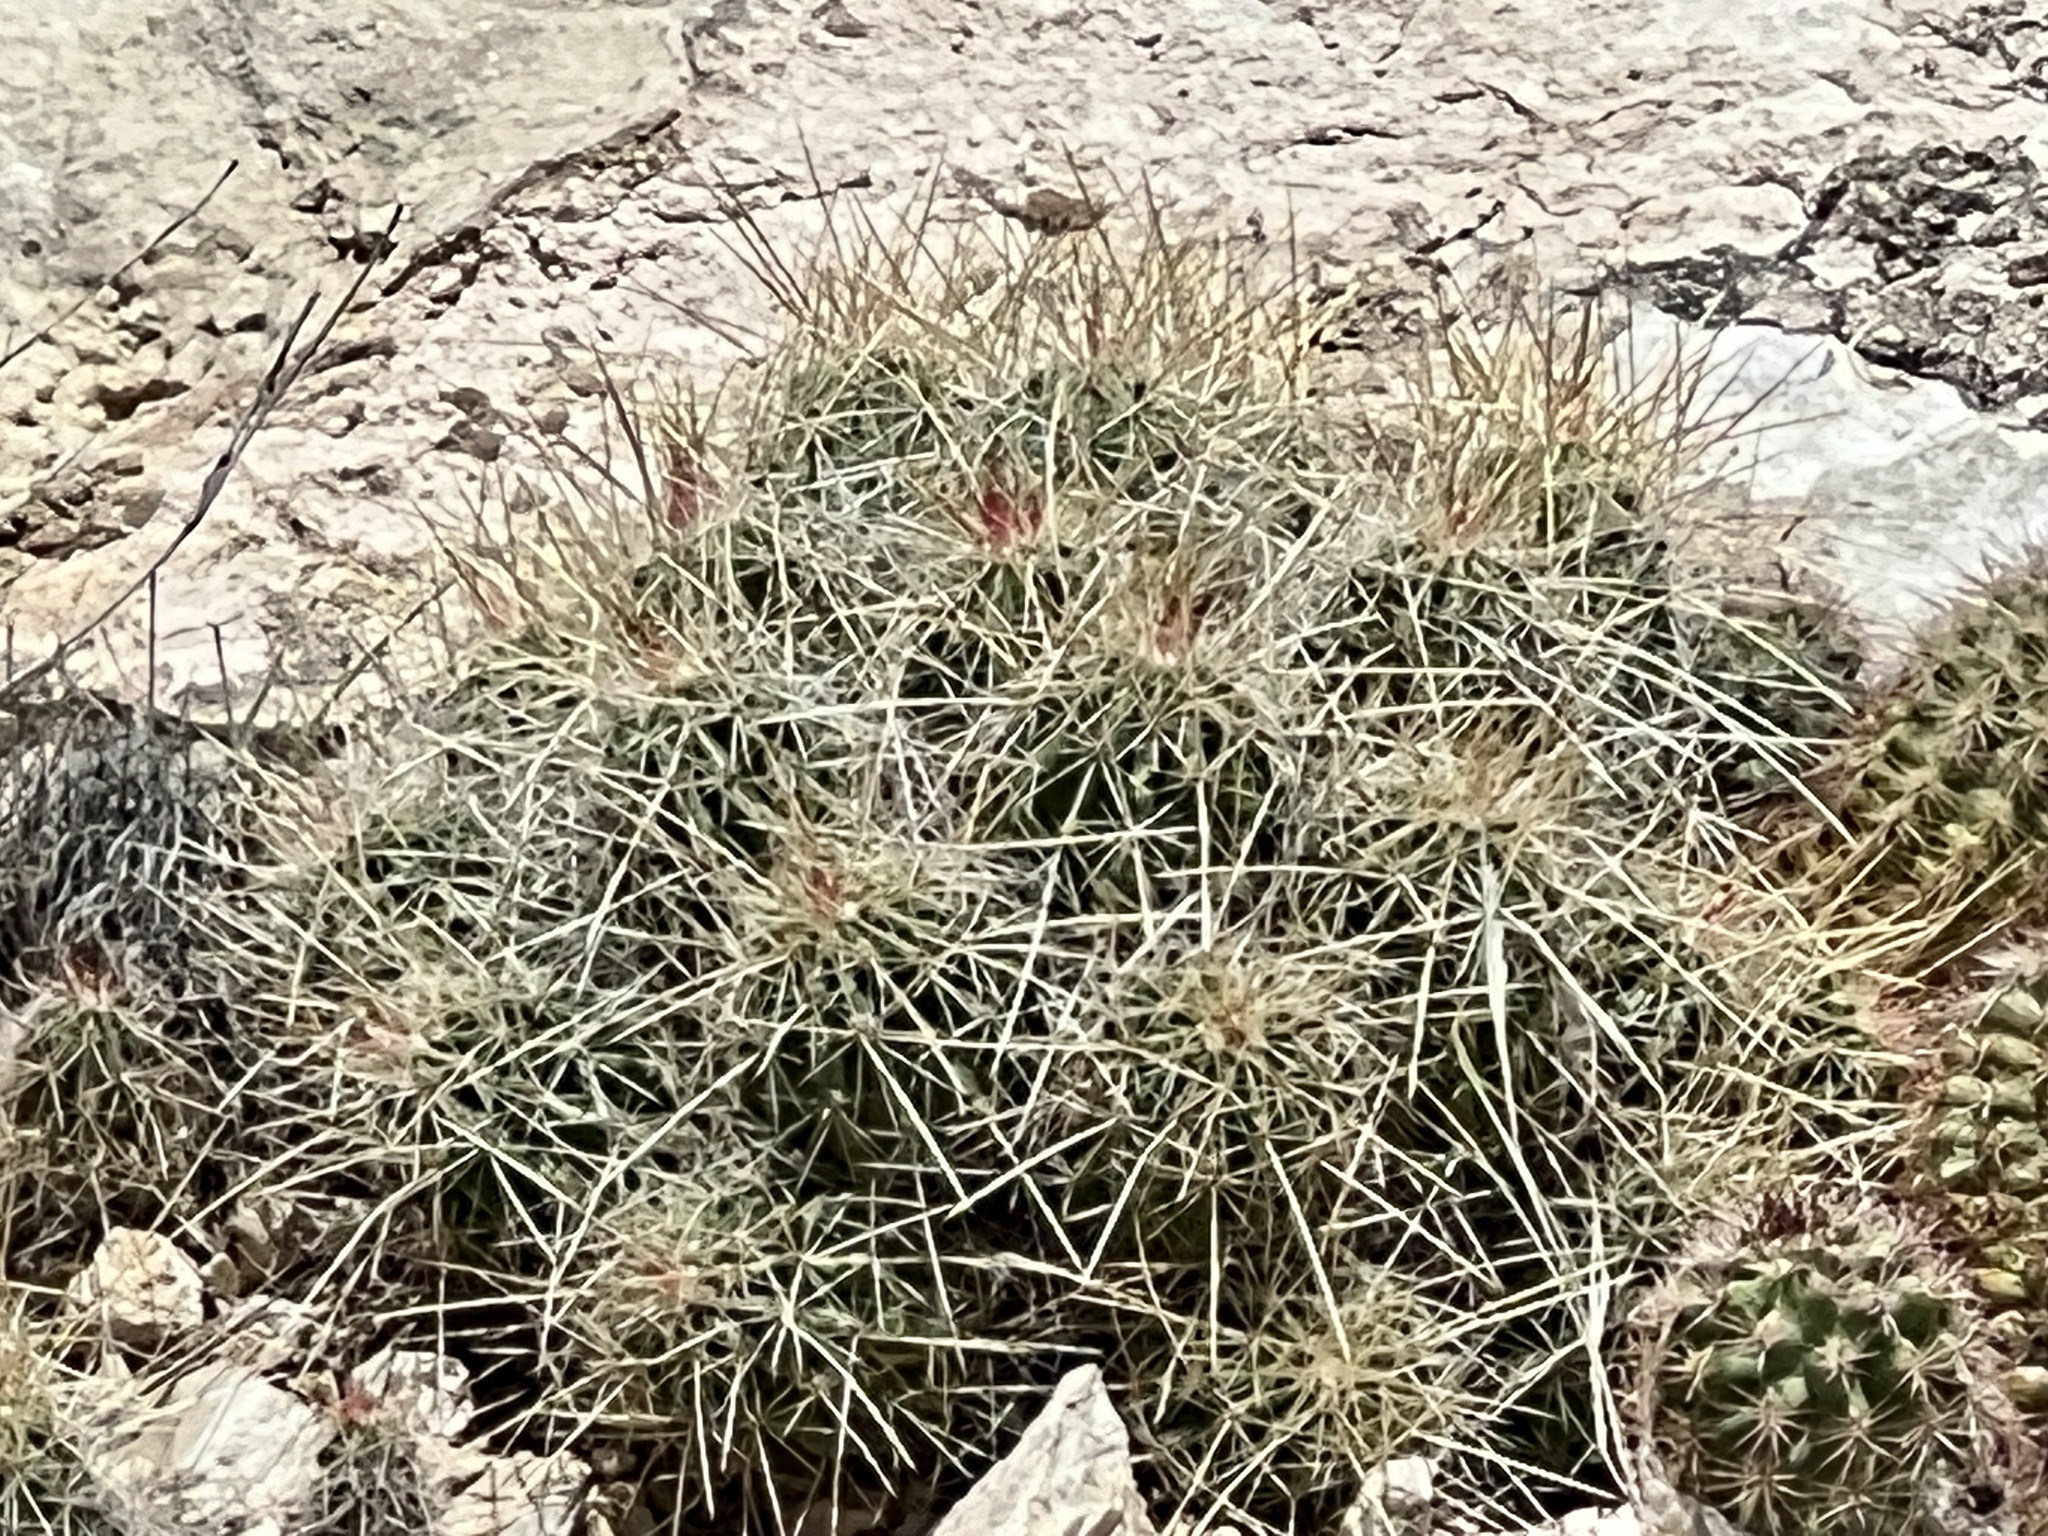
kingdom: Plantae
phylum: Tracheophyta
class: Magnoliopsida
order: Caryophyllales
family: Cactaceae
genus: Echinocereus
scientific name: Echinocereus stramineus
